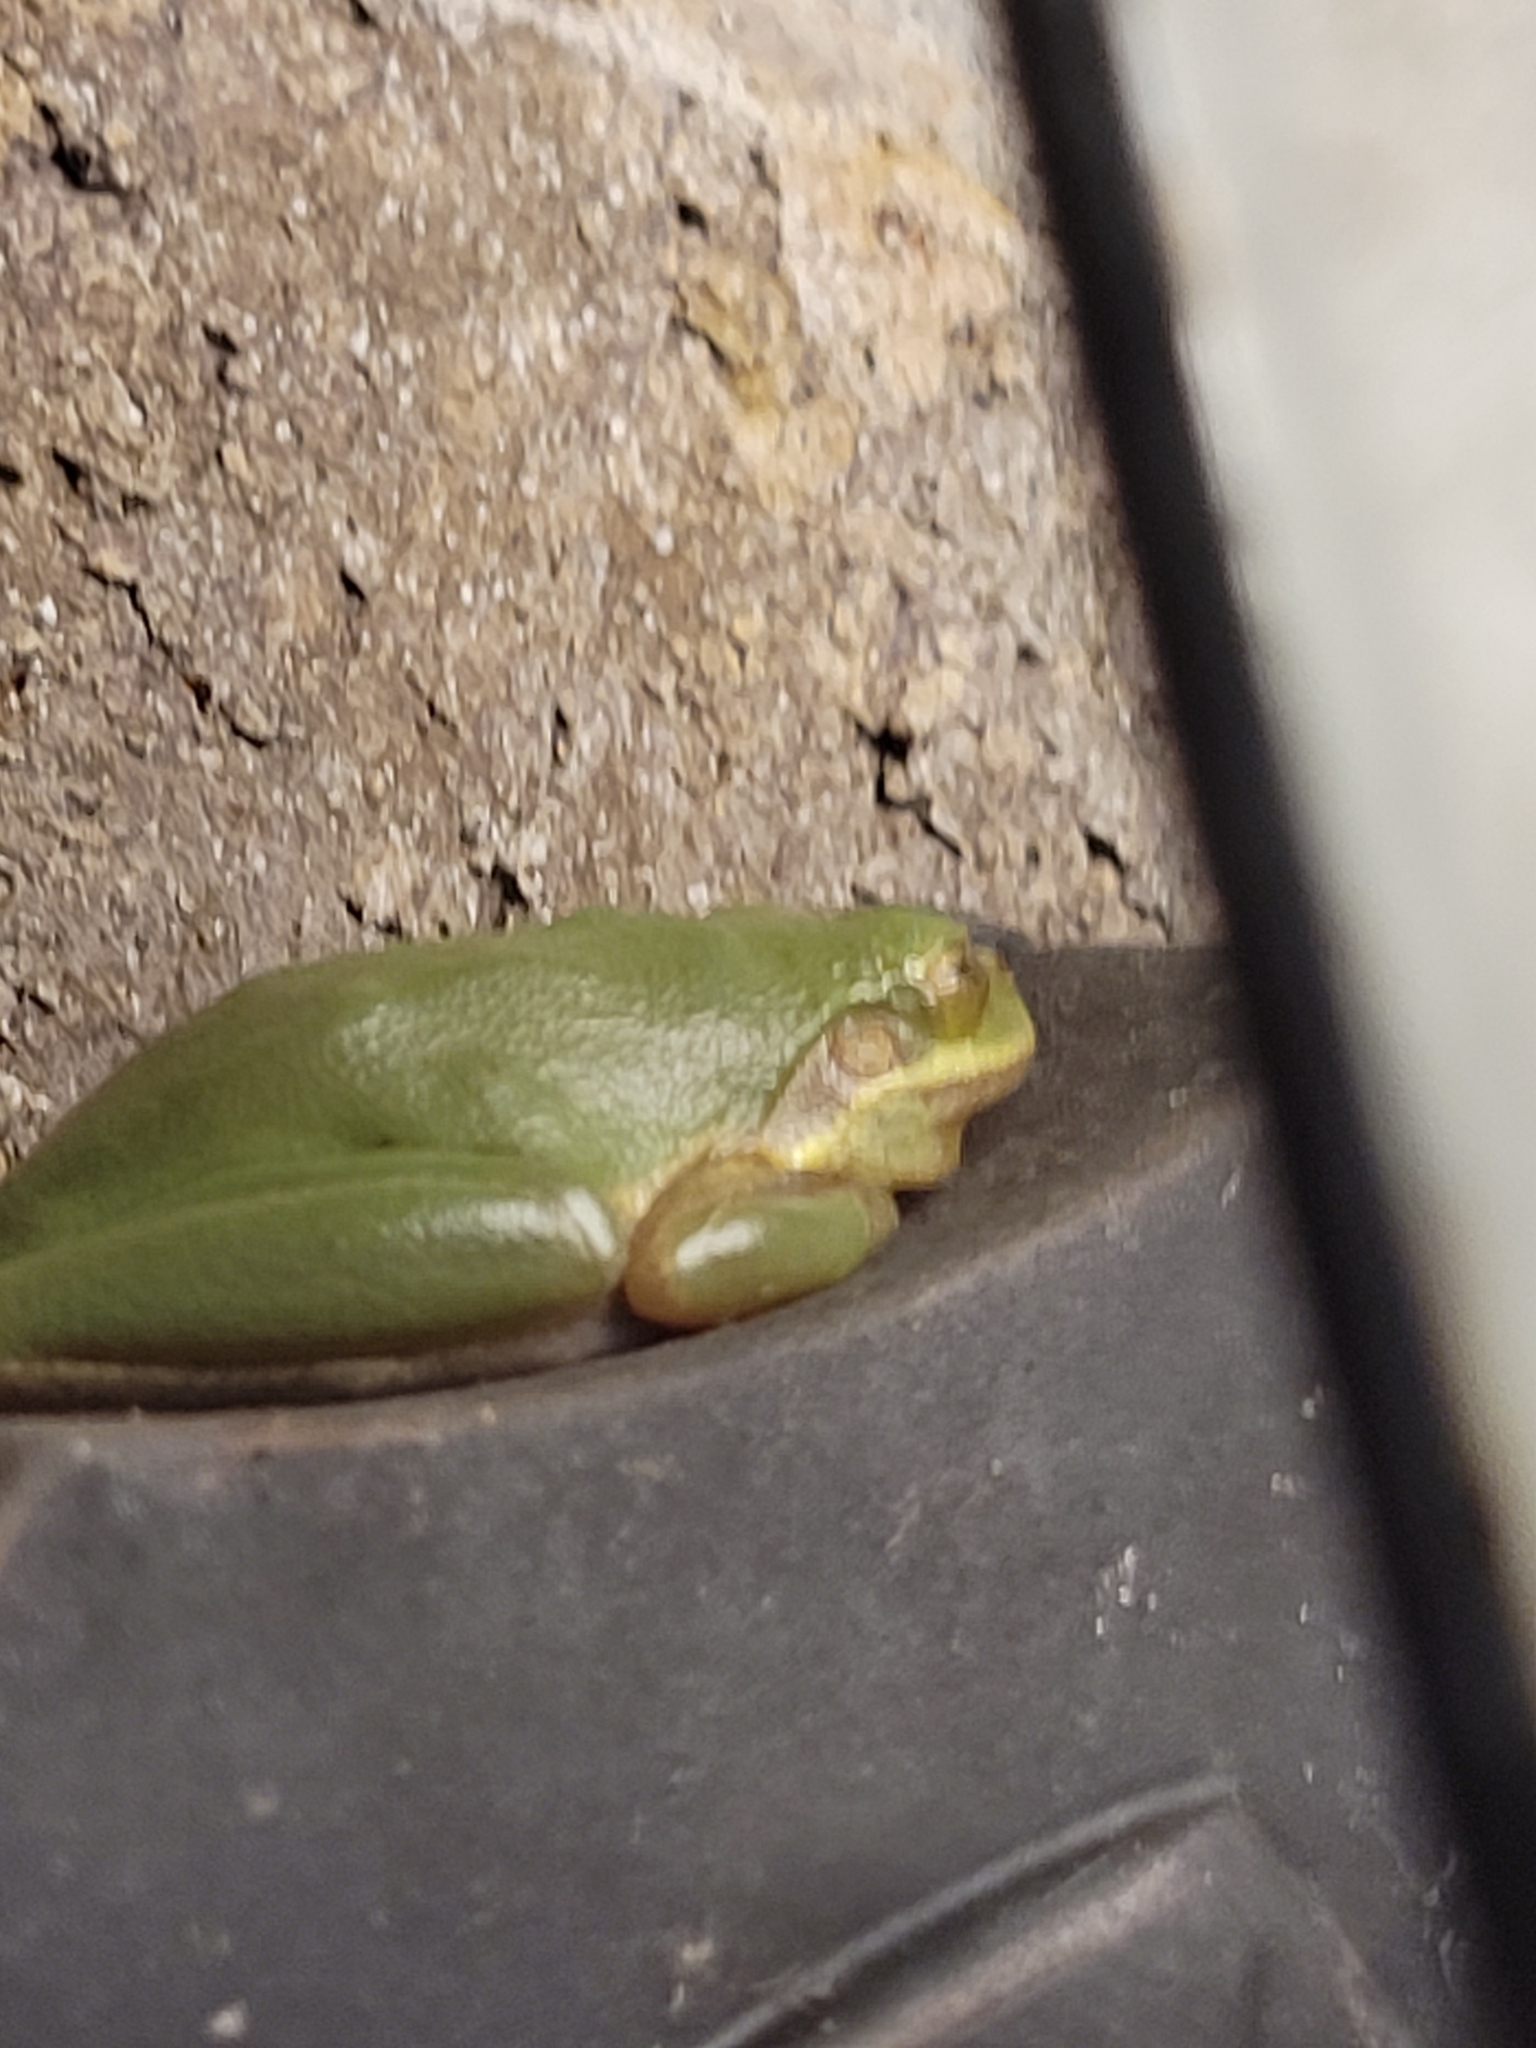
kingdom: Animalia
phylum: Chordata
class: Amphibia
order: Anura
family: Hylidae
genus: Dryophytes
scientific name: Dryophytes squirellus
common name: Squirrel treefrog
